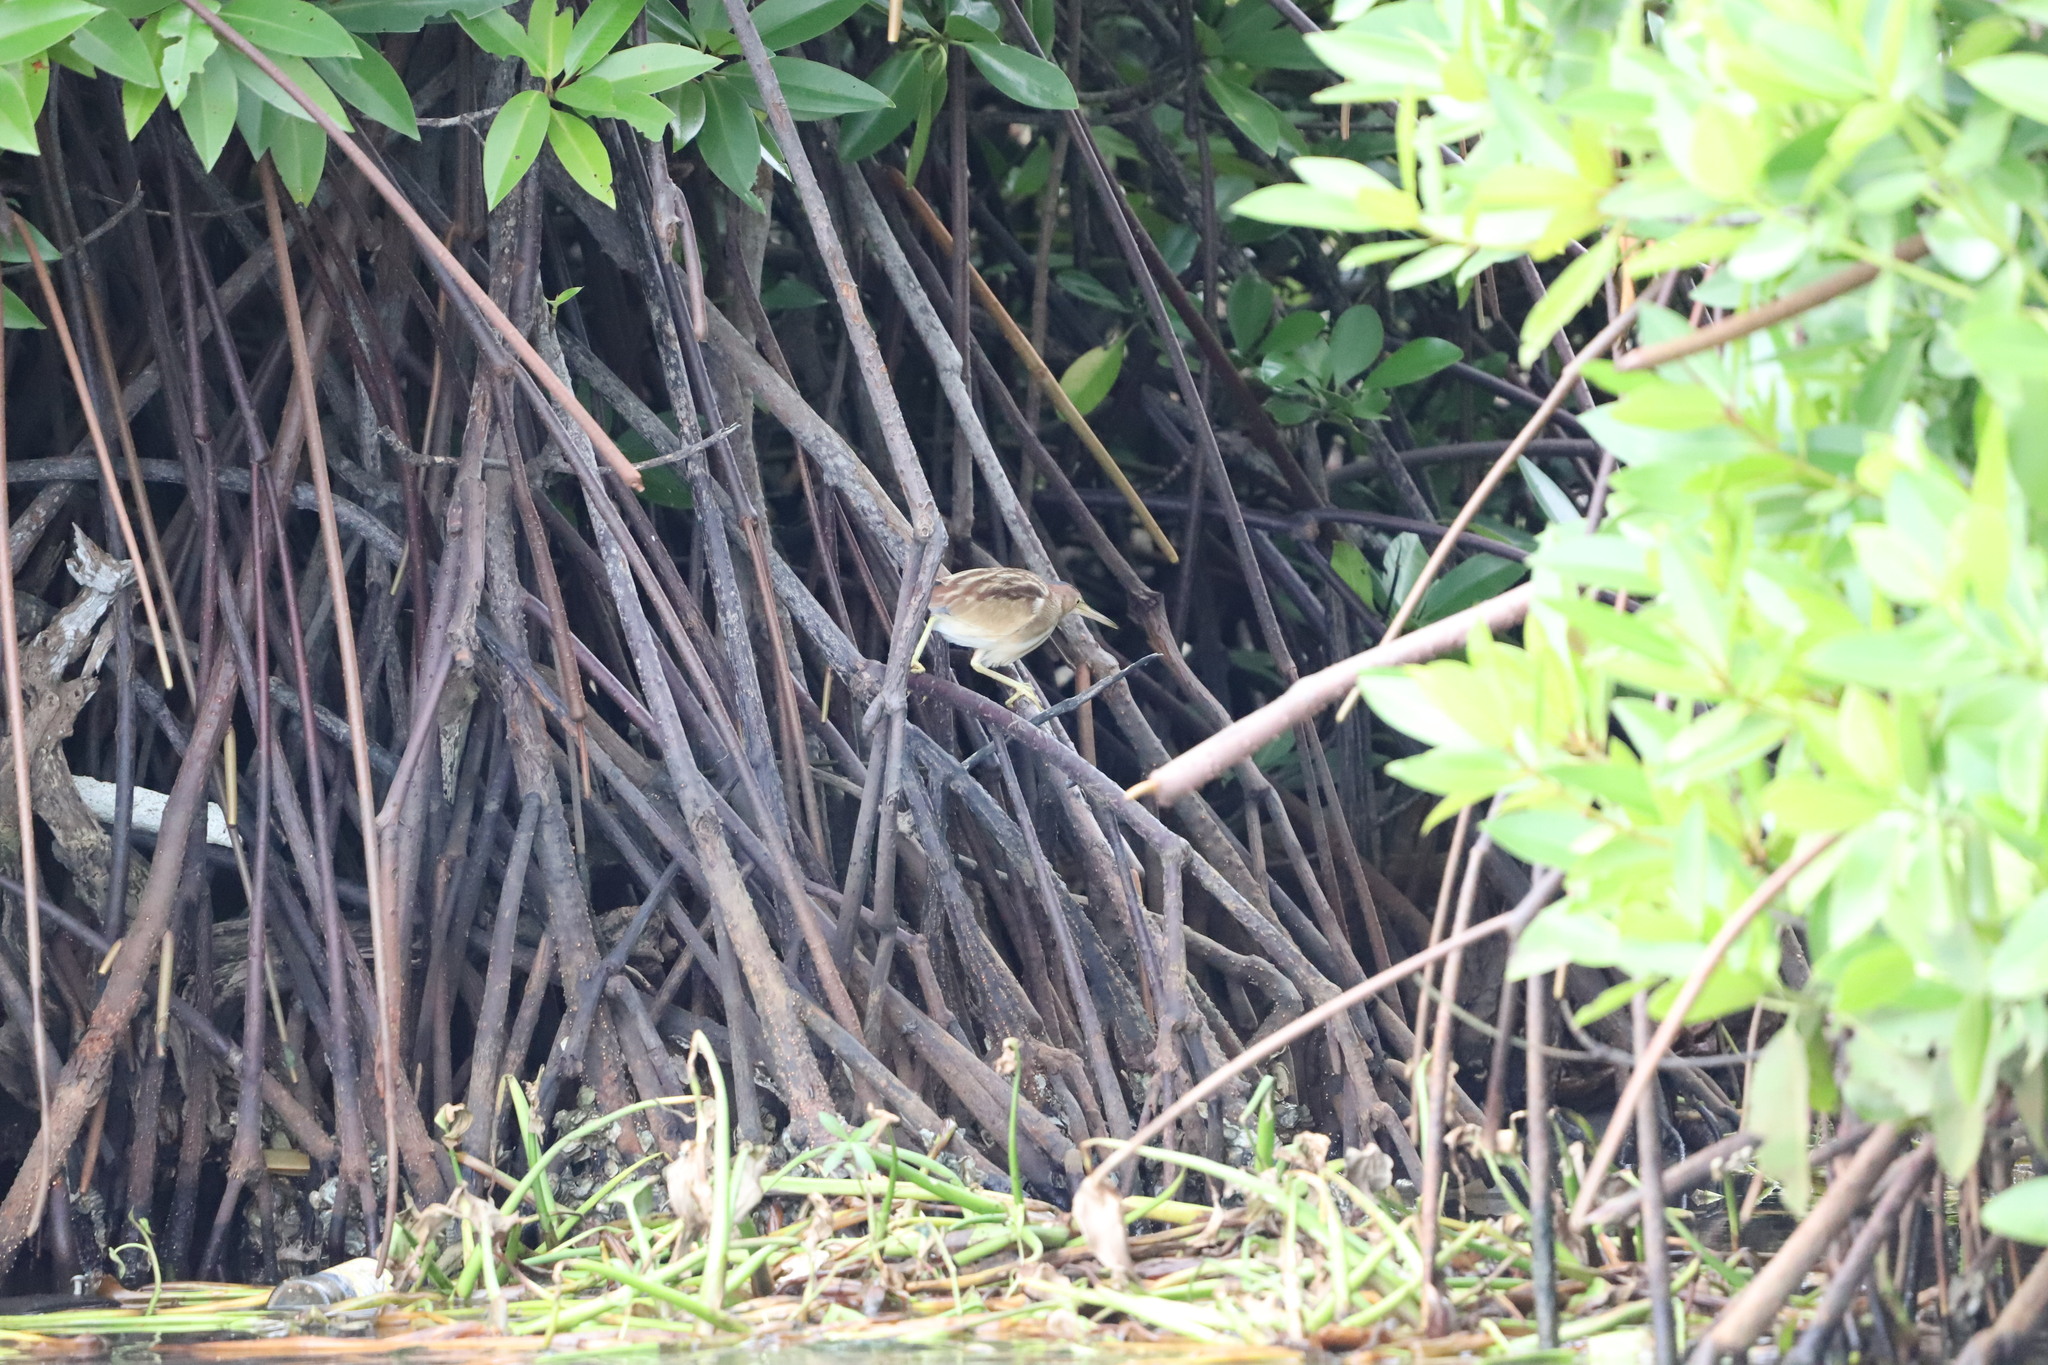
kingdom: Animalia
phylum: Chordata
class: Aves
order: Pelecaniformes
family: Ardeidae
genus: Ardeola
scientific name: Ardeola grayii
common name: Indian pond heron
